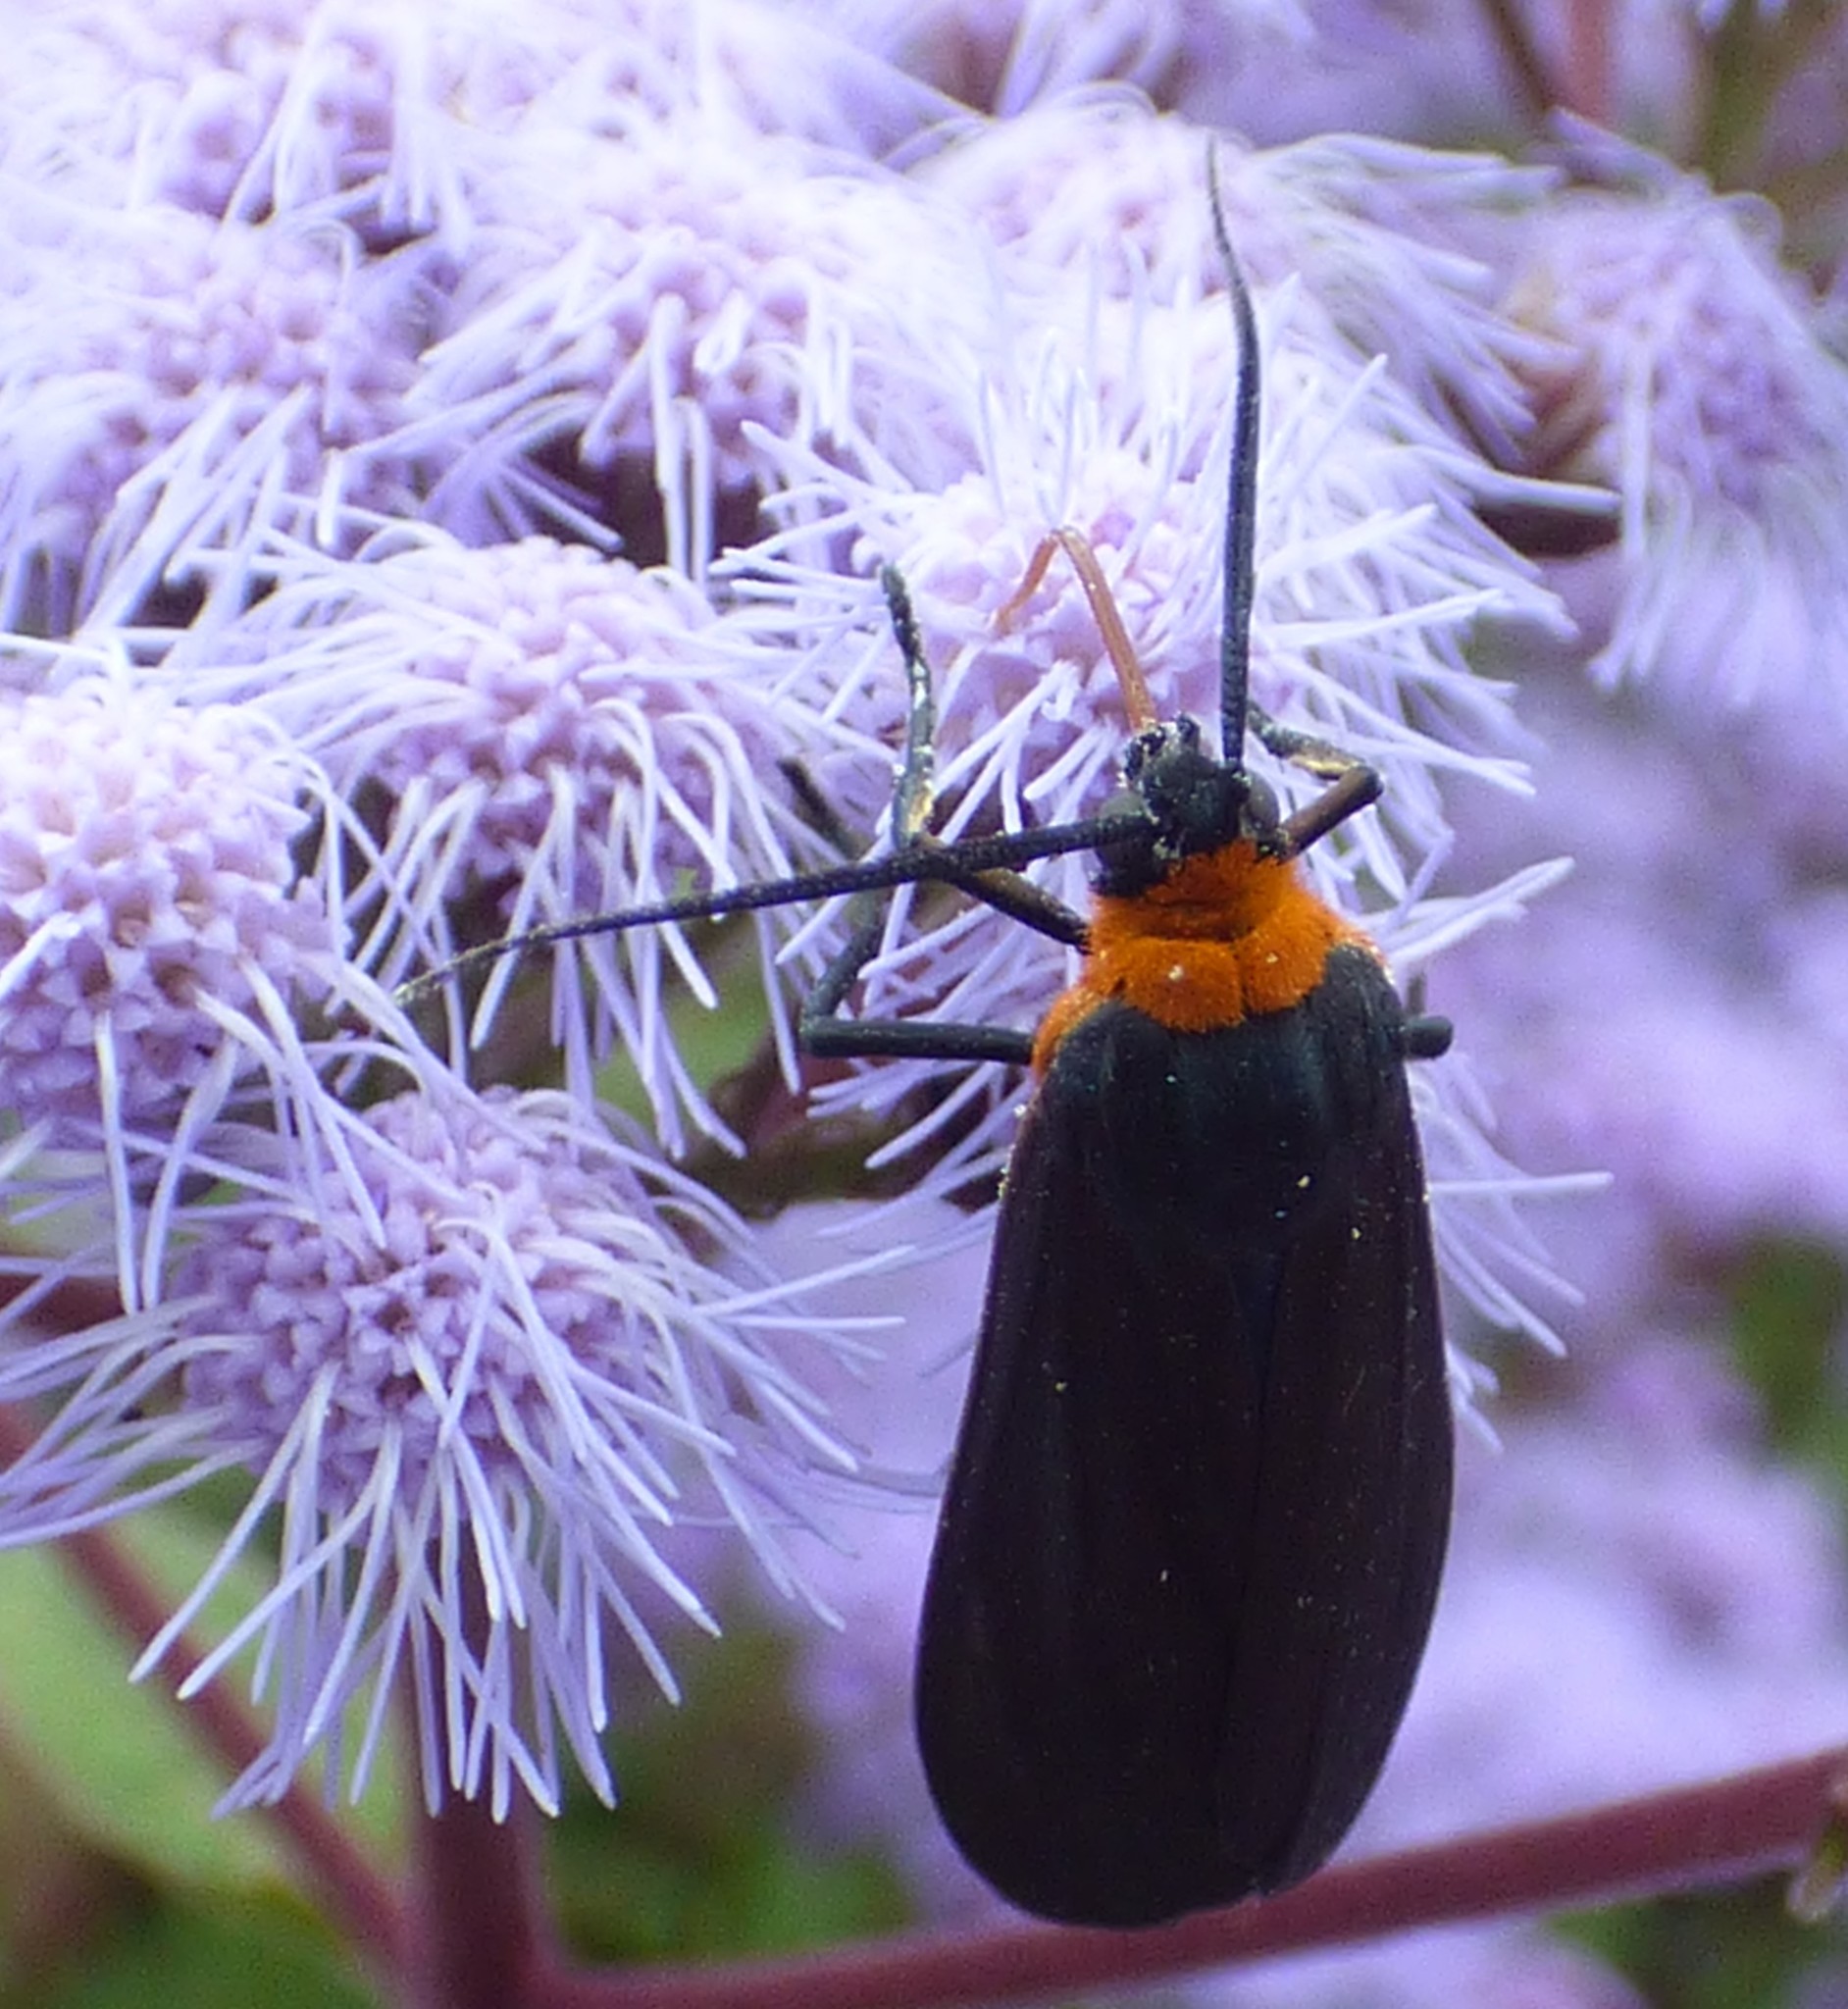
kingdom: Animalia
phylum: Arthropoda
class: Insecta
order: Lepidoptera
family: Erebidae
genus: Cisseps
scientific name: Cisseps fulvicollis
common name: Yellow-collared scape moth
